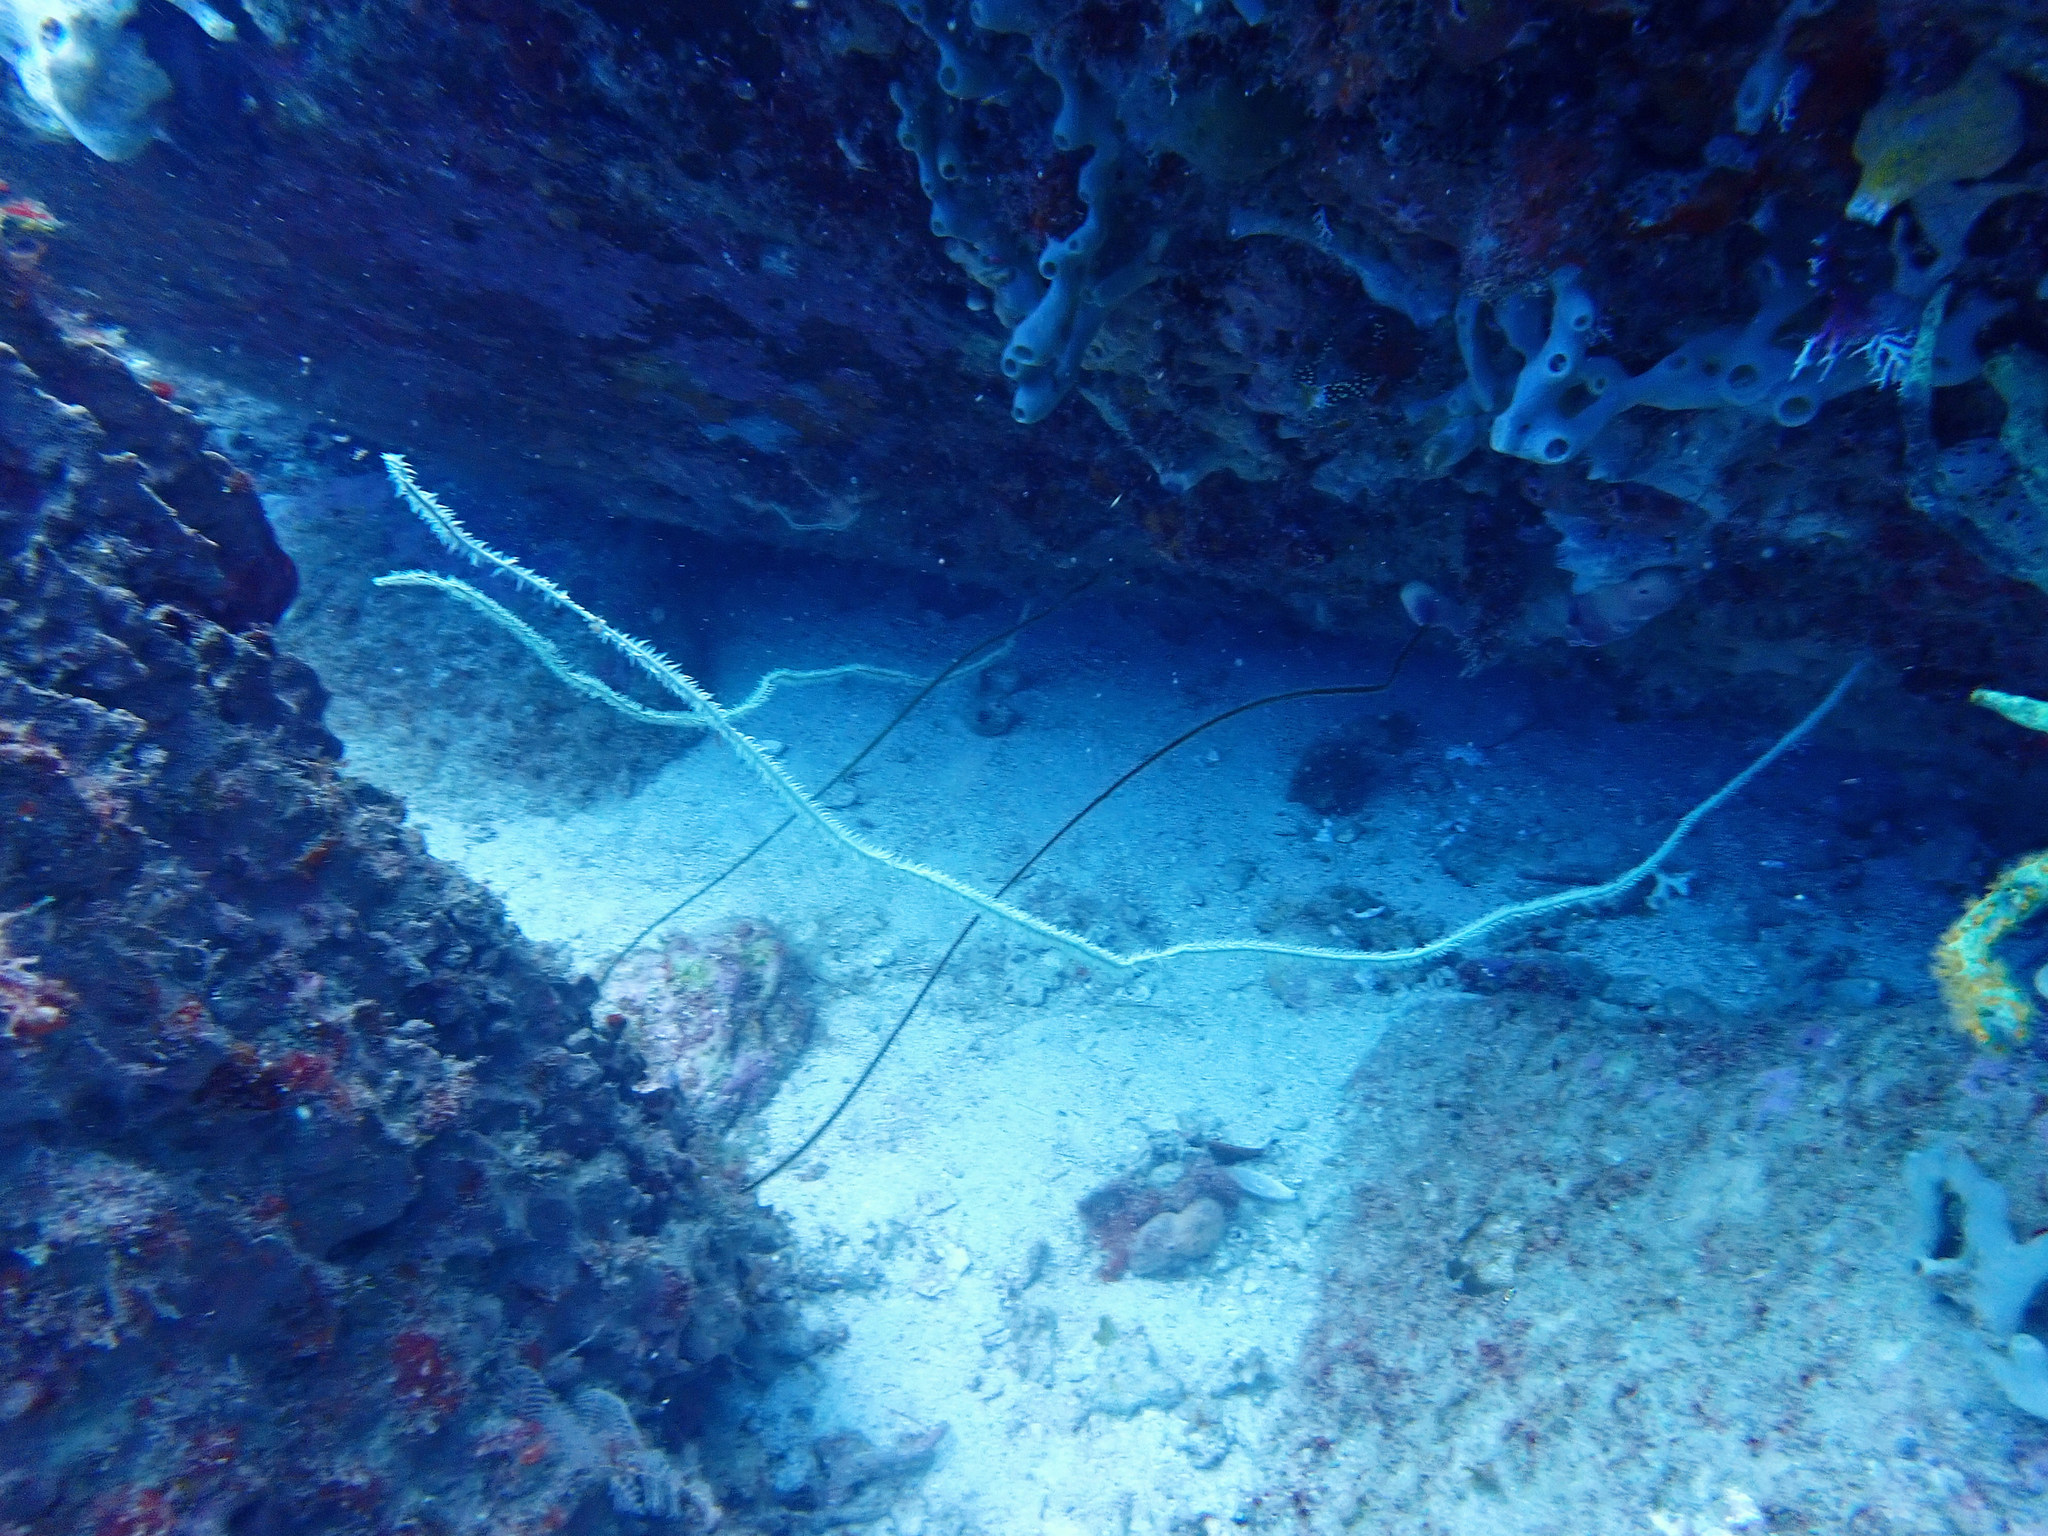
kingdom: Animalia
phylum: Cnidaria
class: Anthozoa
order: Antipatharia
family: Antipathidae
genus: Stichopathes
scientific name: Stichopathes luetkeni
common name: Black wire coral
